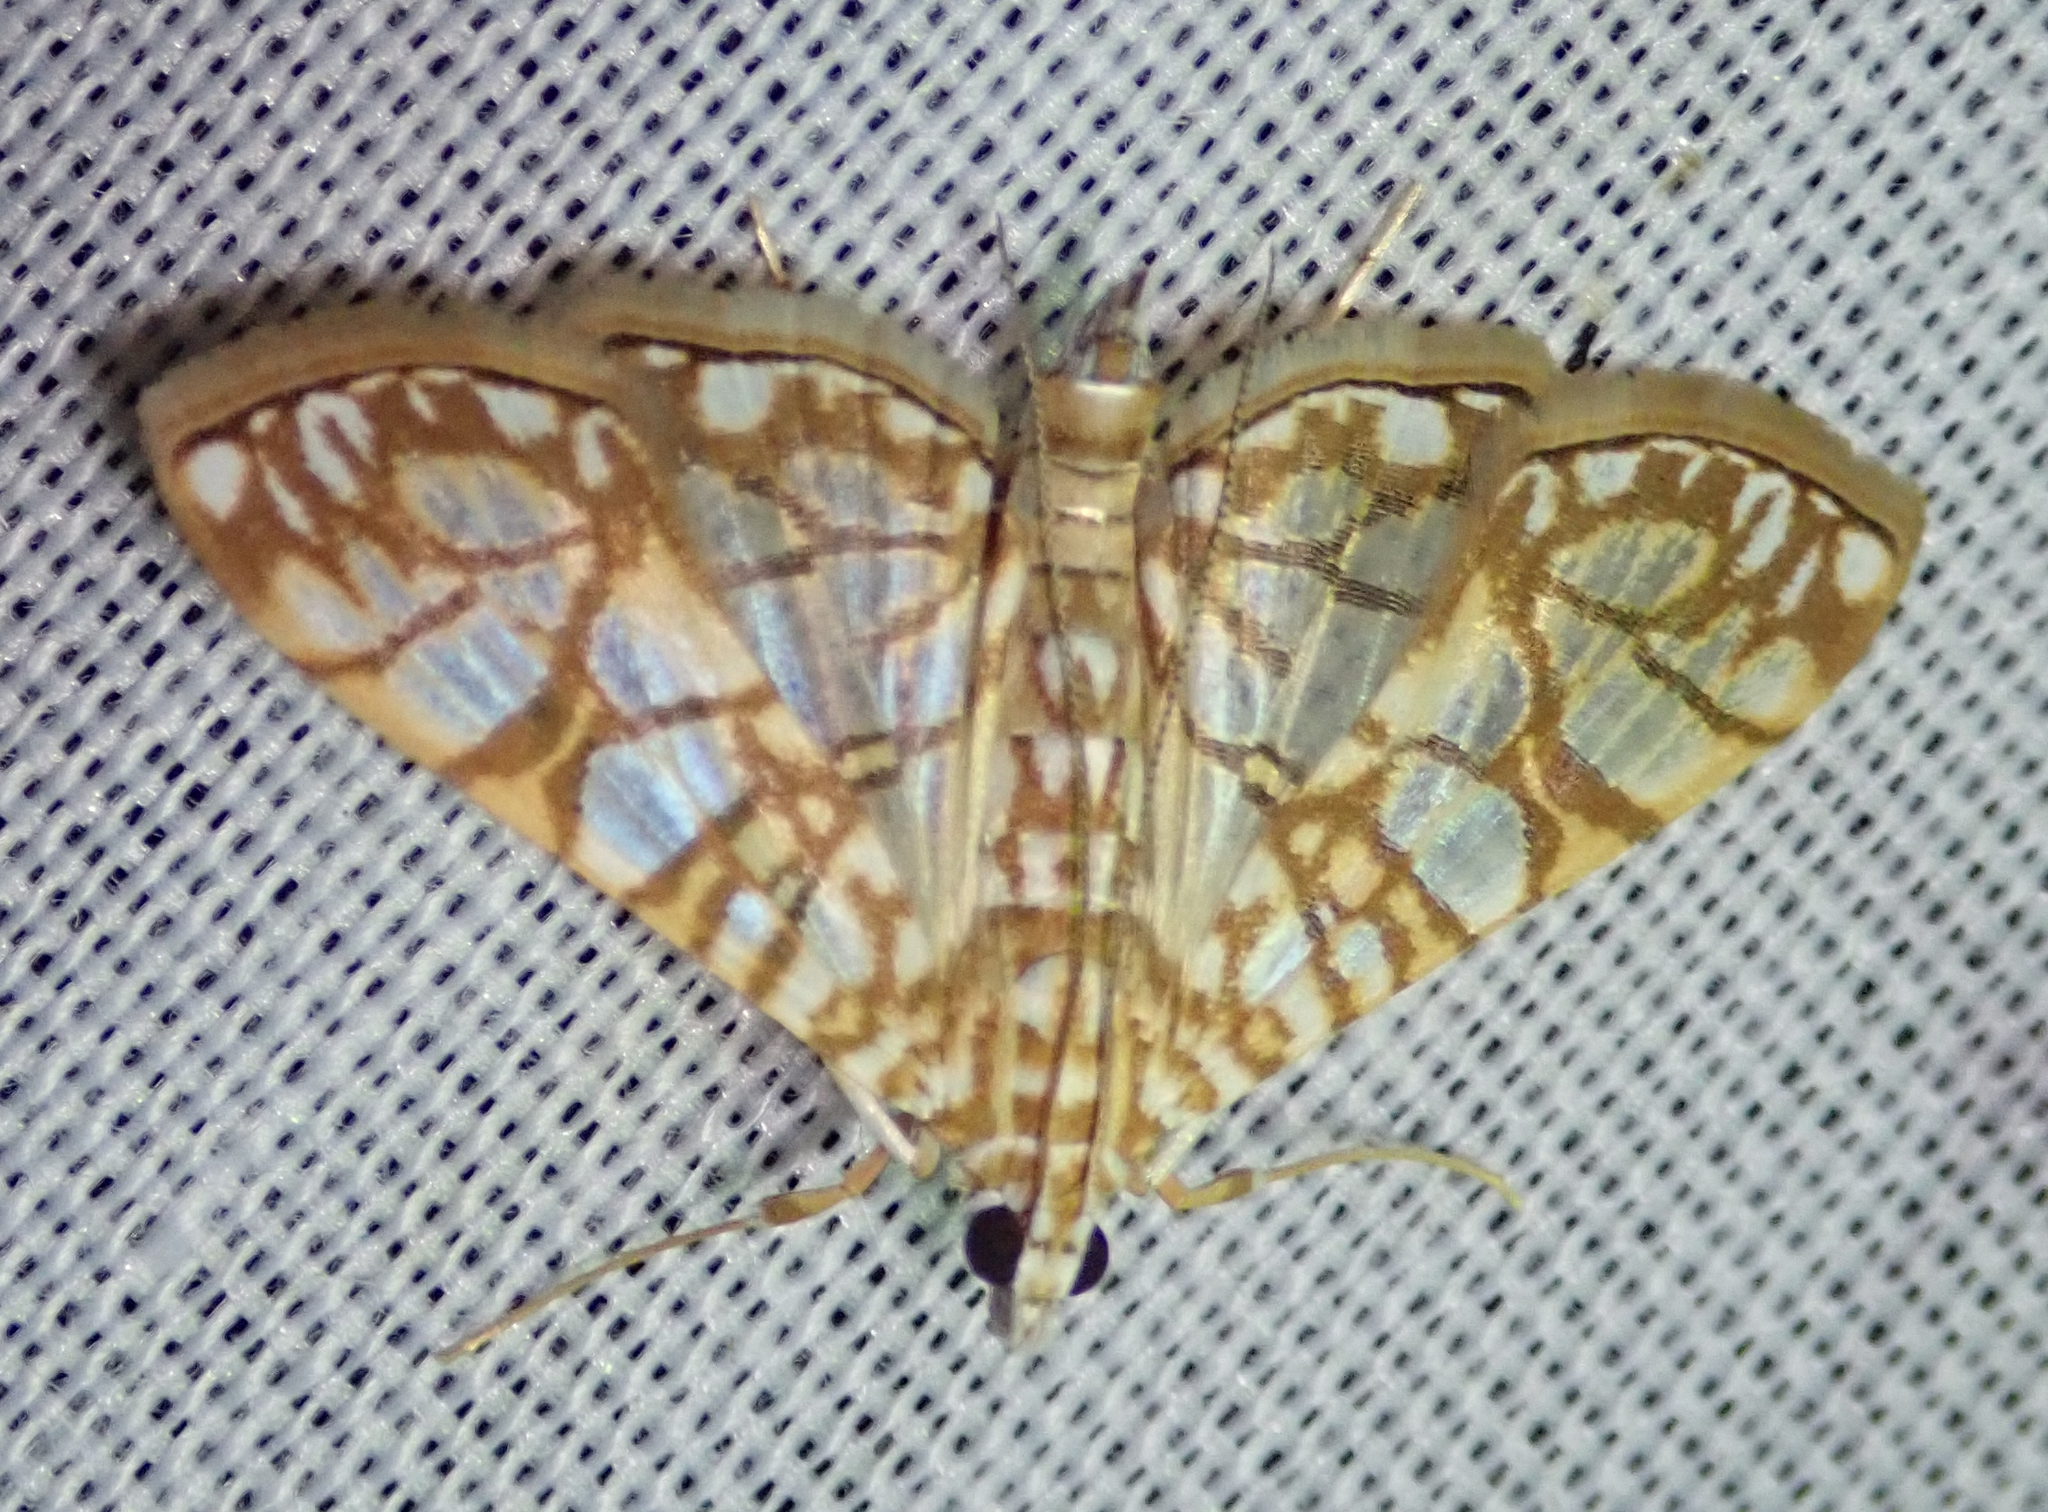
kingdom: Animalia
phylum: Arthropoda
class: Insecta
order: Lepidoptera
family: Crambidae
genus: Synclera
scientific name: Synclera traducalis
